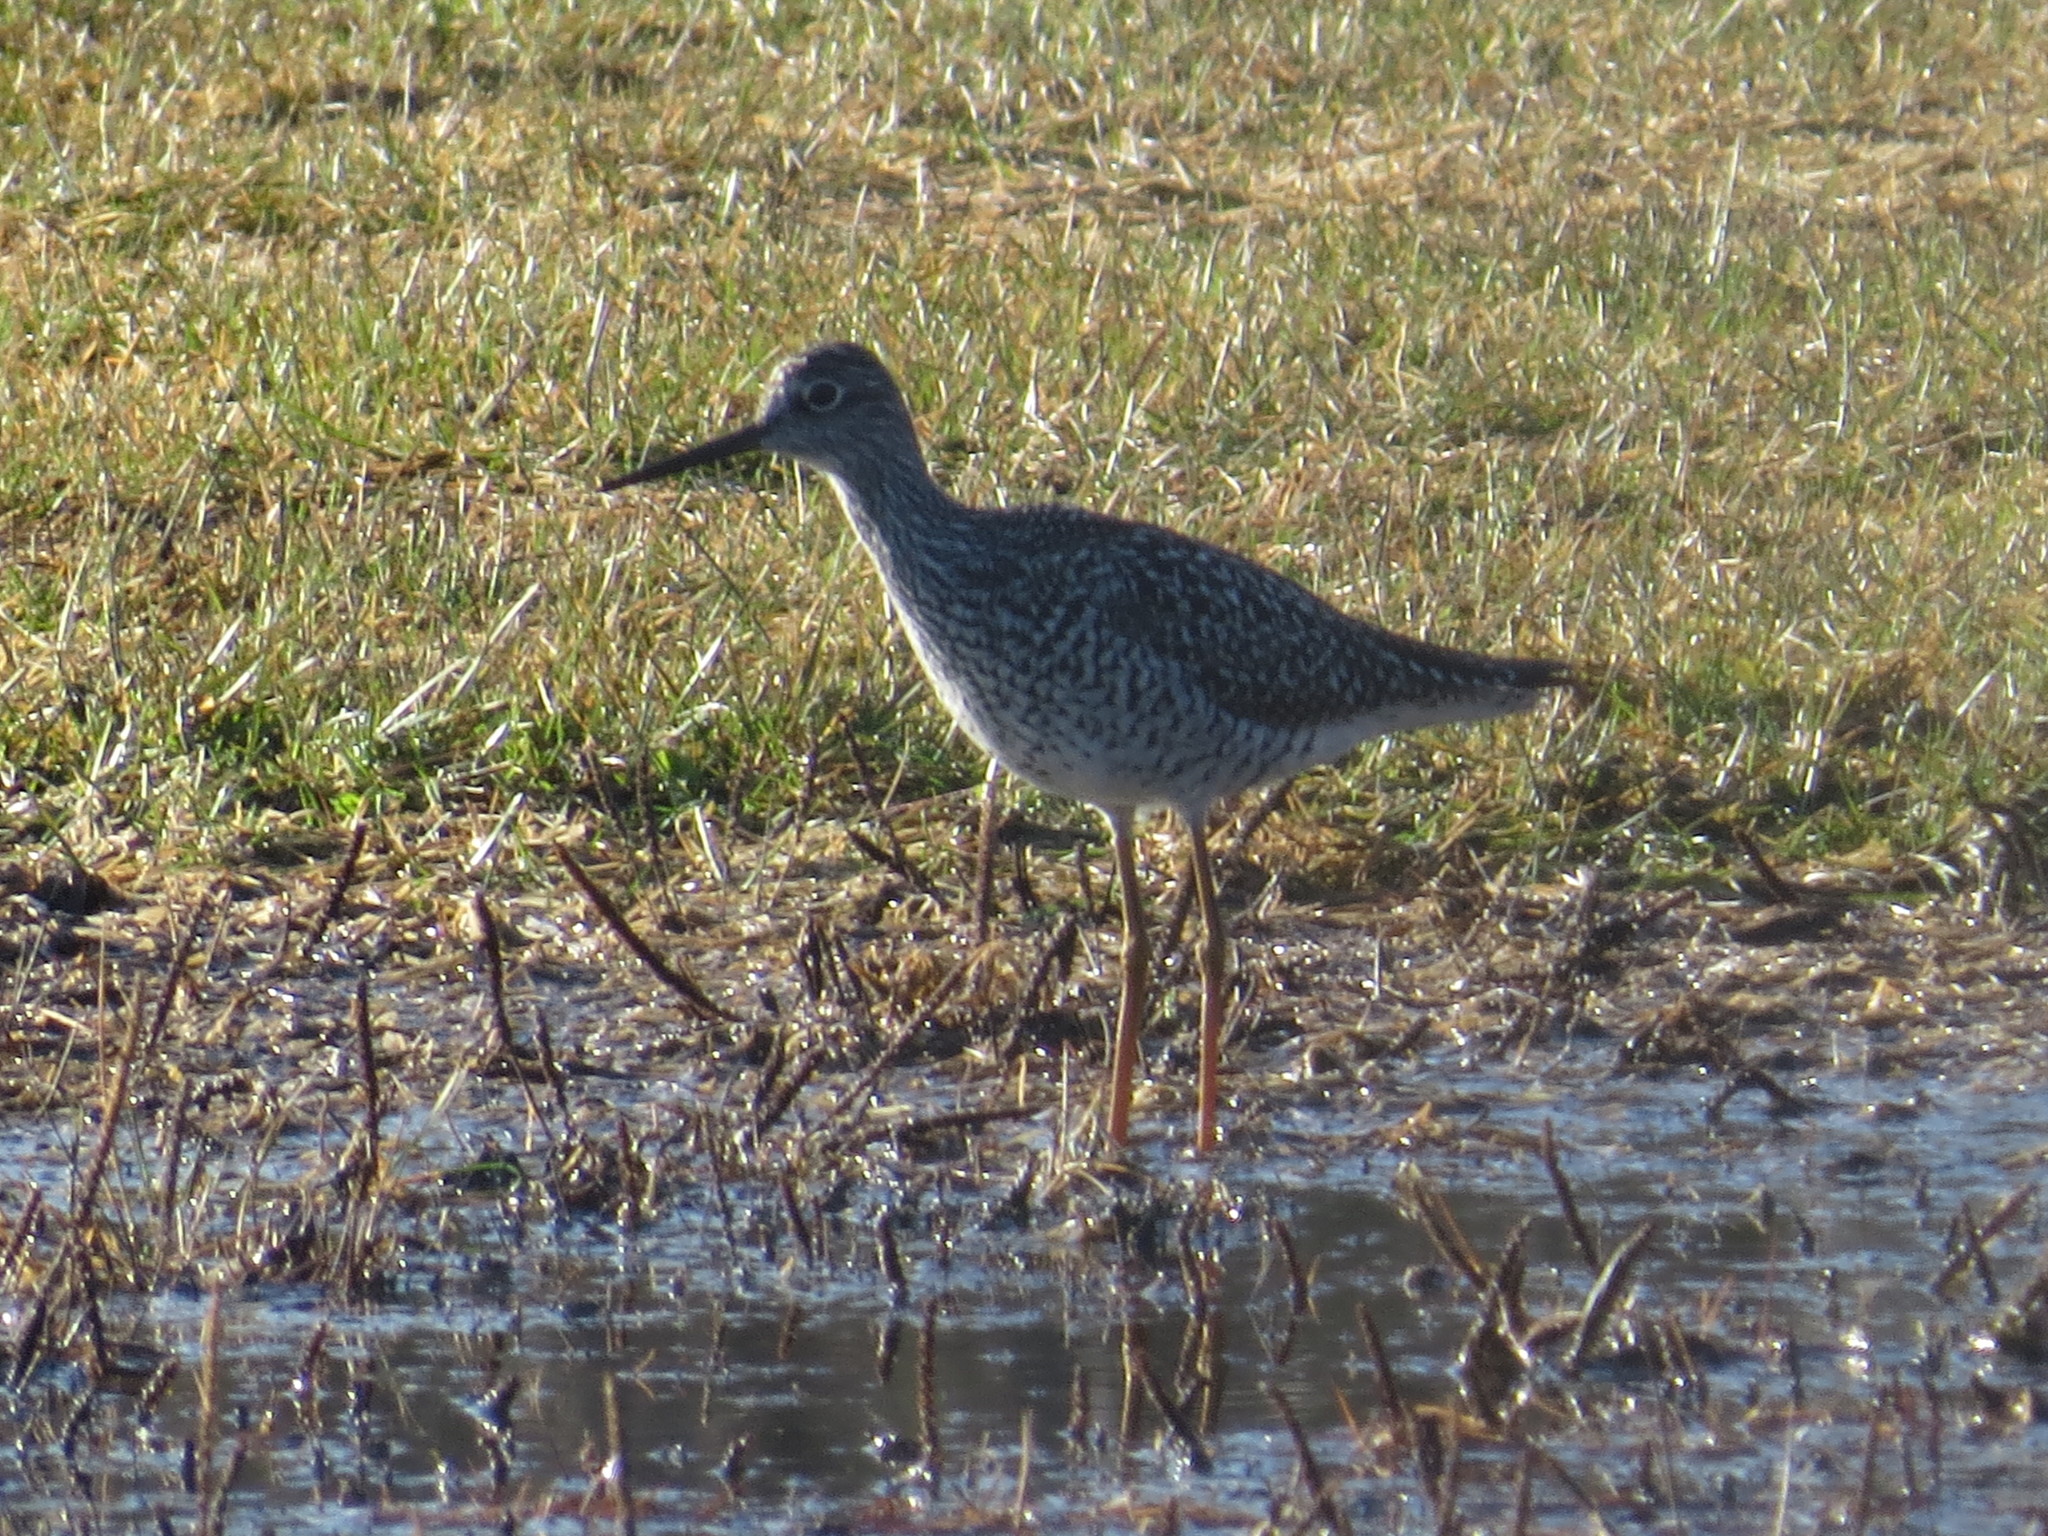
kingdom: Animalia
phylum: Chordata
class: Aves
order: Charadriiformes
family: Scolopacidae
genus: Tringa
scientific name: Tringa melanoleuca
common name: Greater yellowlegs
